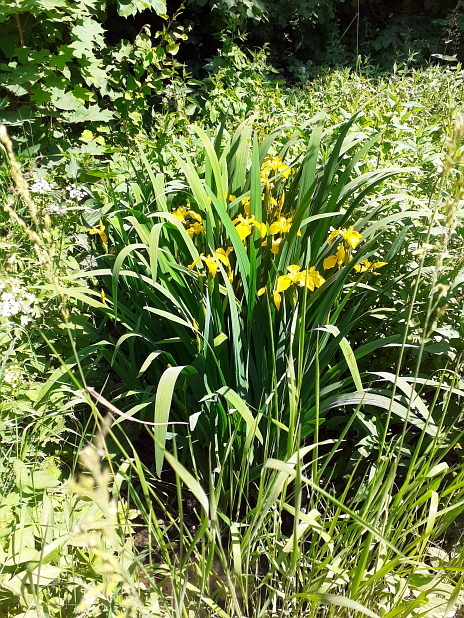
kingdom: Plantae
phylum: Tracheophyta
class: Liliopsida
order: Asparagales
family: Iridaceae
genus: Iris
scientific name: Iris pseudacorus
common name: Yellow flag
